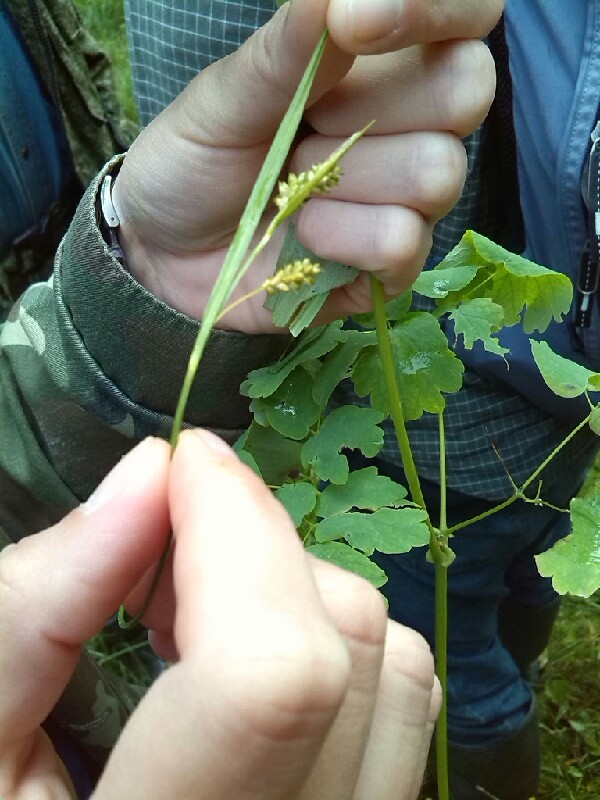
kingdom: Plantae
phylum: Tracheophyta
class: Liliopsida
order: Poales
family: Cyperaceae
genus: Carex
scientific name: Carex pallescens
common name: Pale sedge
